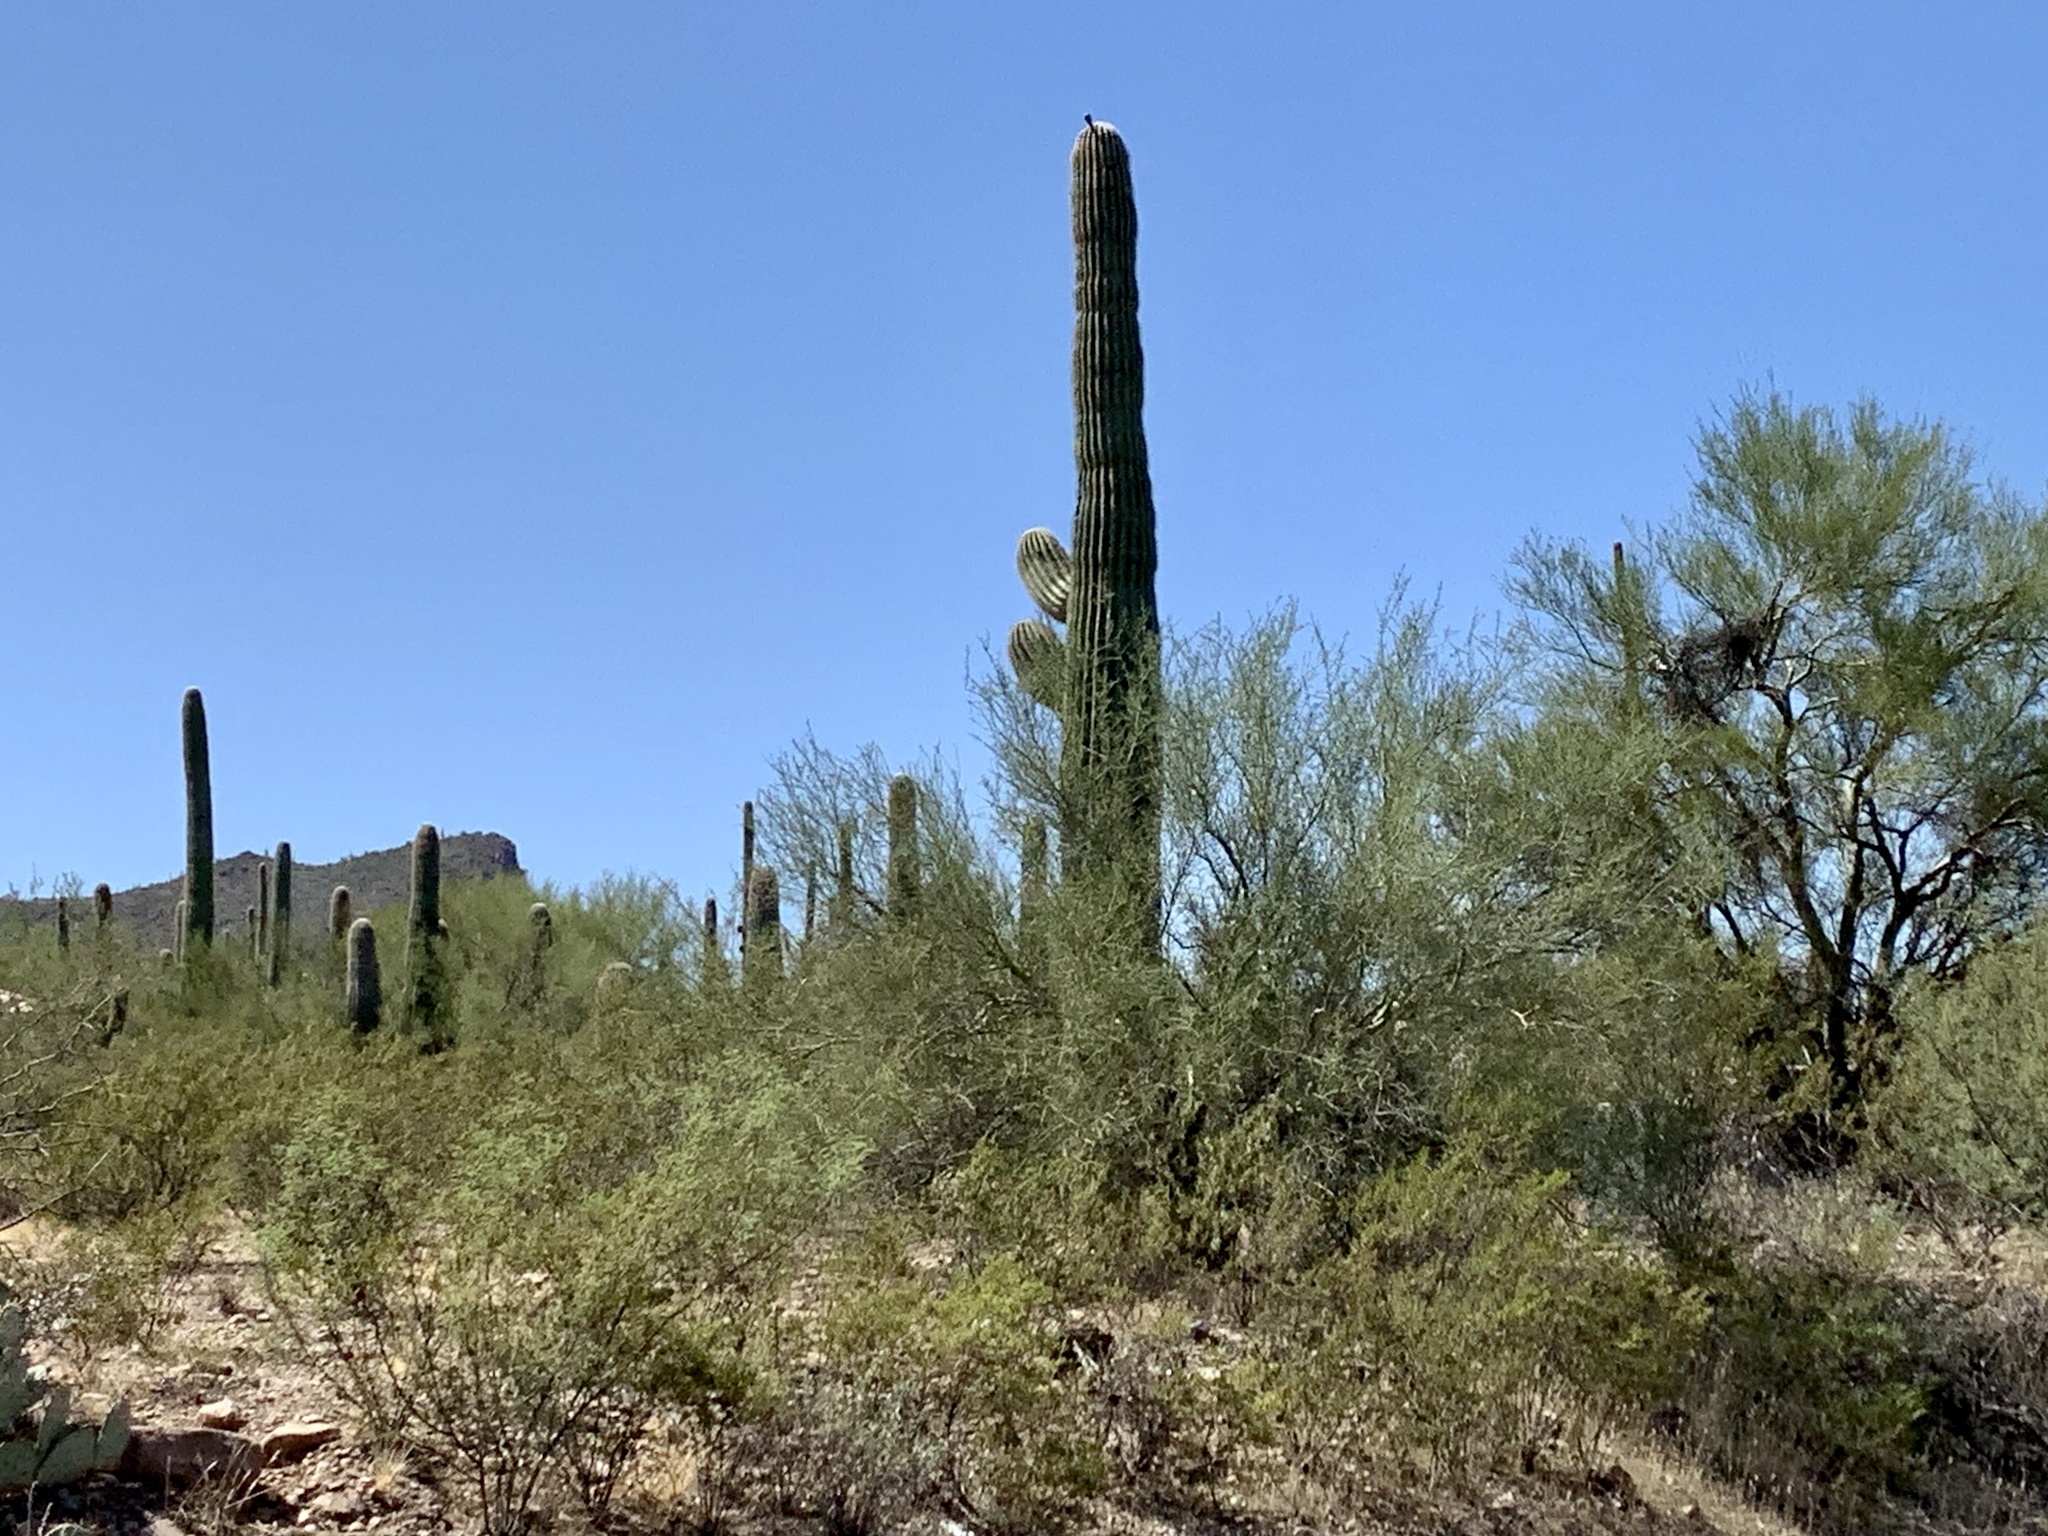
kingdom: Plantae
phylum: Tracheophyta
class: Magnoliopsida
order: Caryophyllales
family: Cactaceae
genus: Carnegiea
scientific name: Carnegiea gigantea
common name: Saguaro
